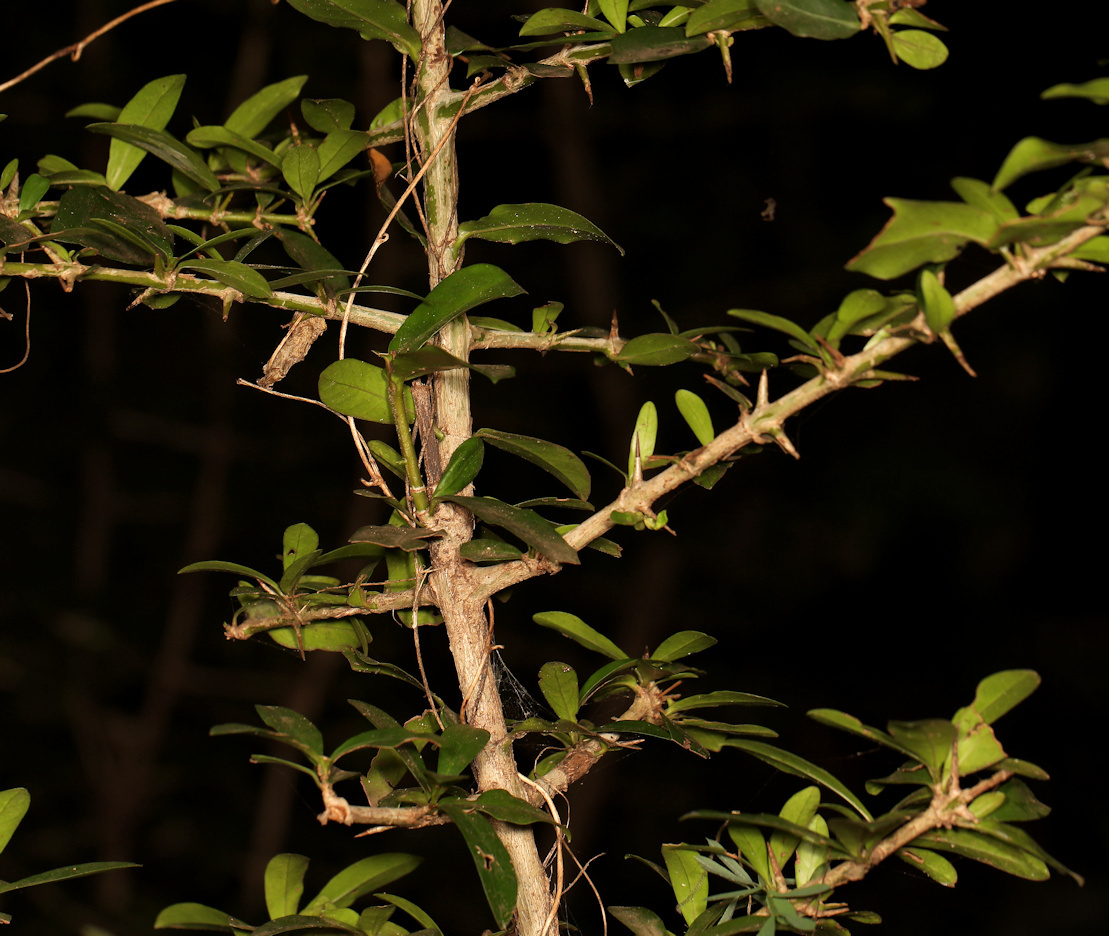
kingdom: Plantae
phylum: Tracheophyta
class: Magnoliopsida
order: Gentianales
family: Rubiaceae
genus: Hyperacanthus
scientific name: Hyperacanthus amoenus
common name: Spiny gardenia
